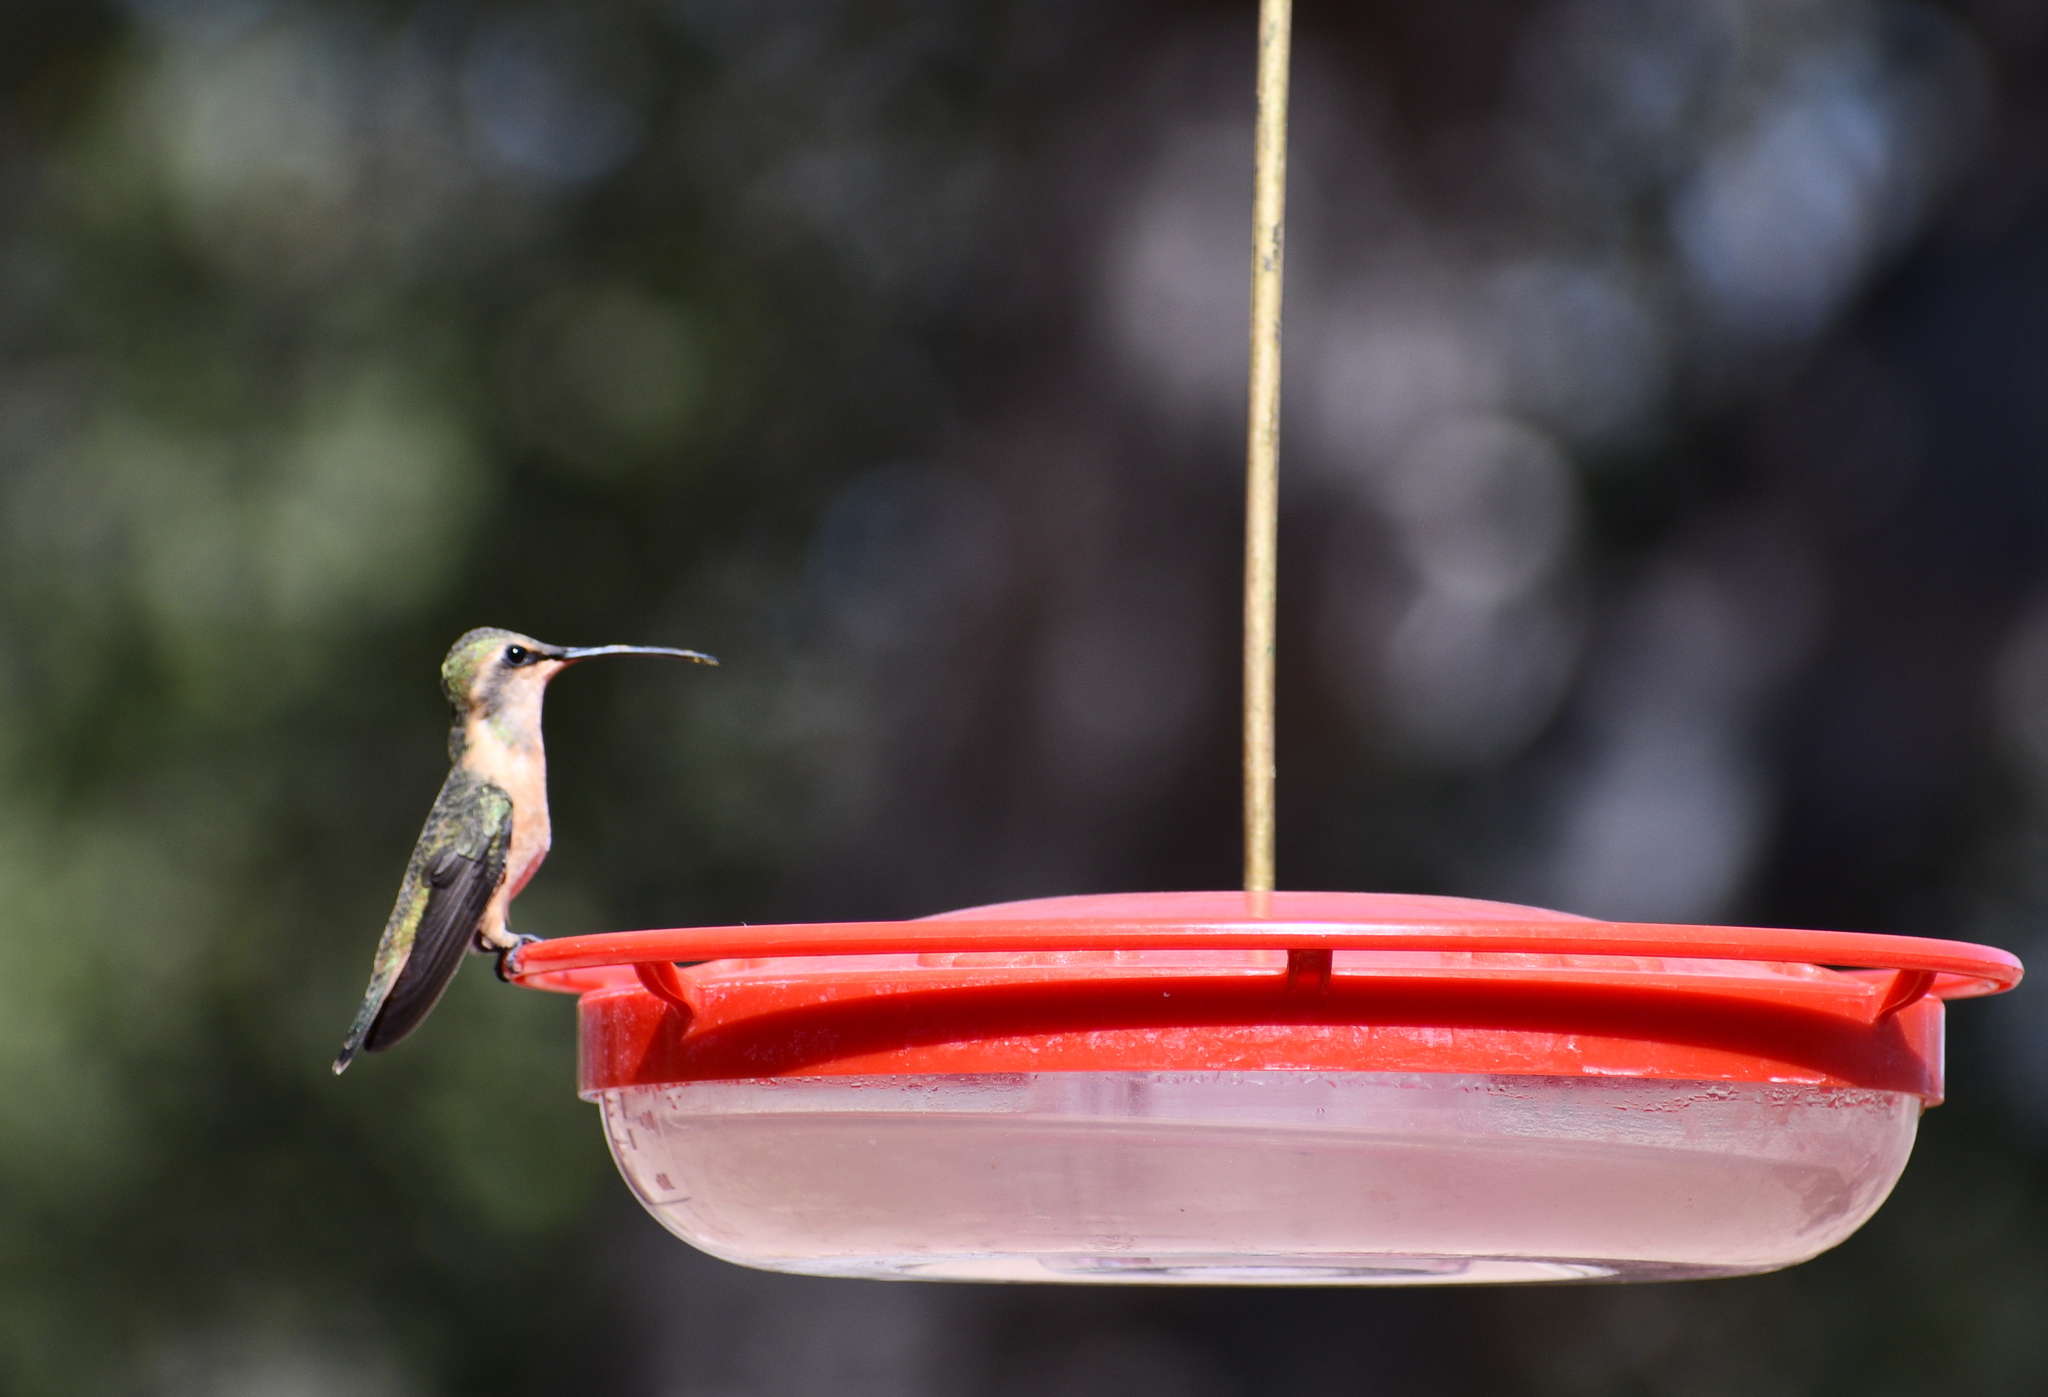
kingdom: Animalia
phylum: Chordata
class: Aves
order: Apodiformes
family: Trochilidae
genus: Calothorax
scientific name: Calothorax lucifer
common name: Lucifer sheartail
